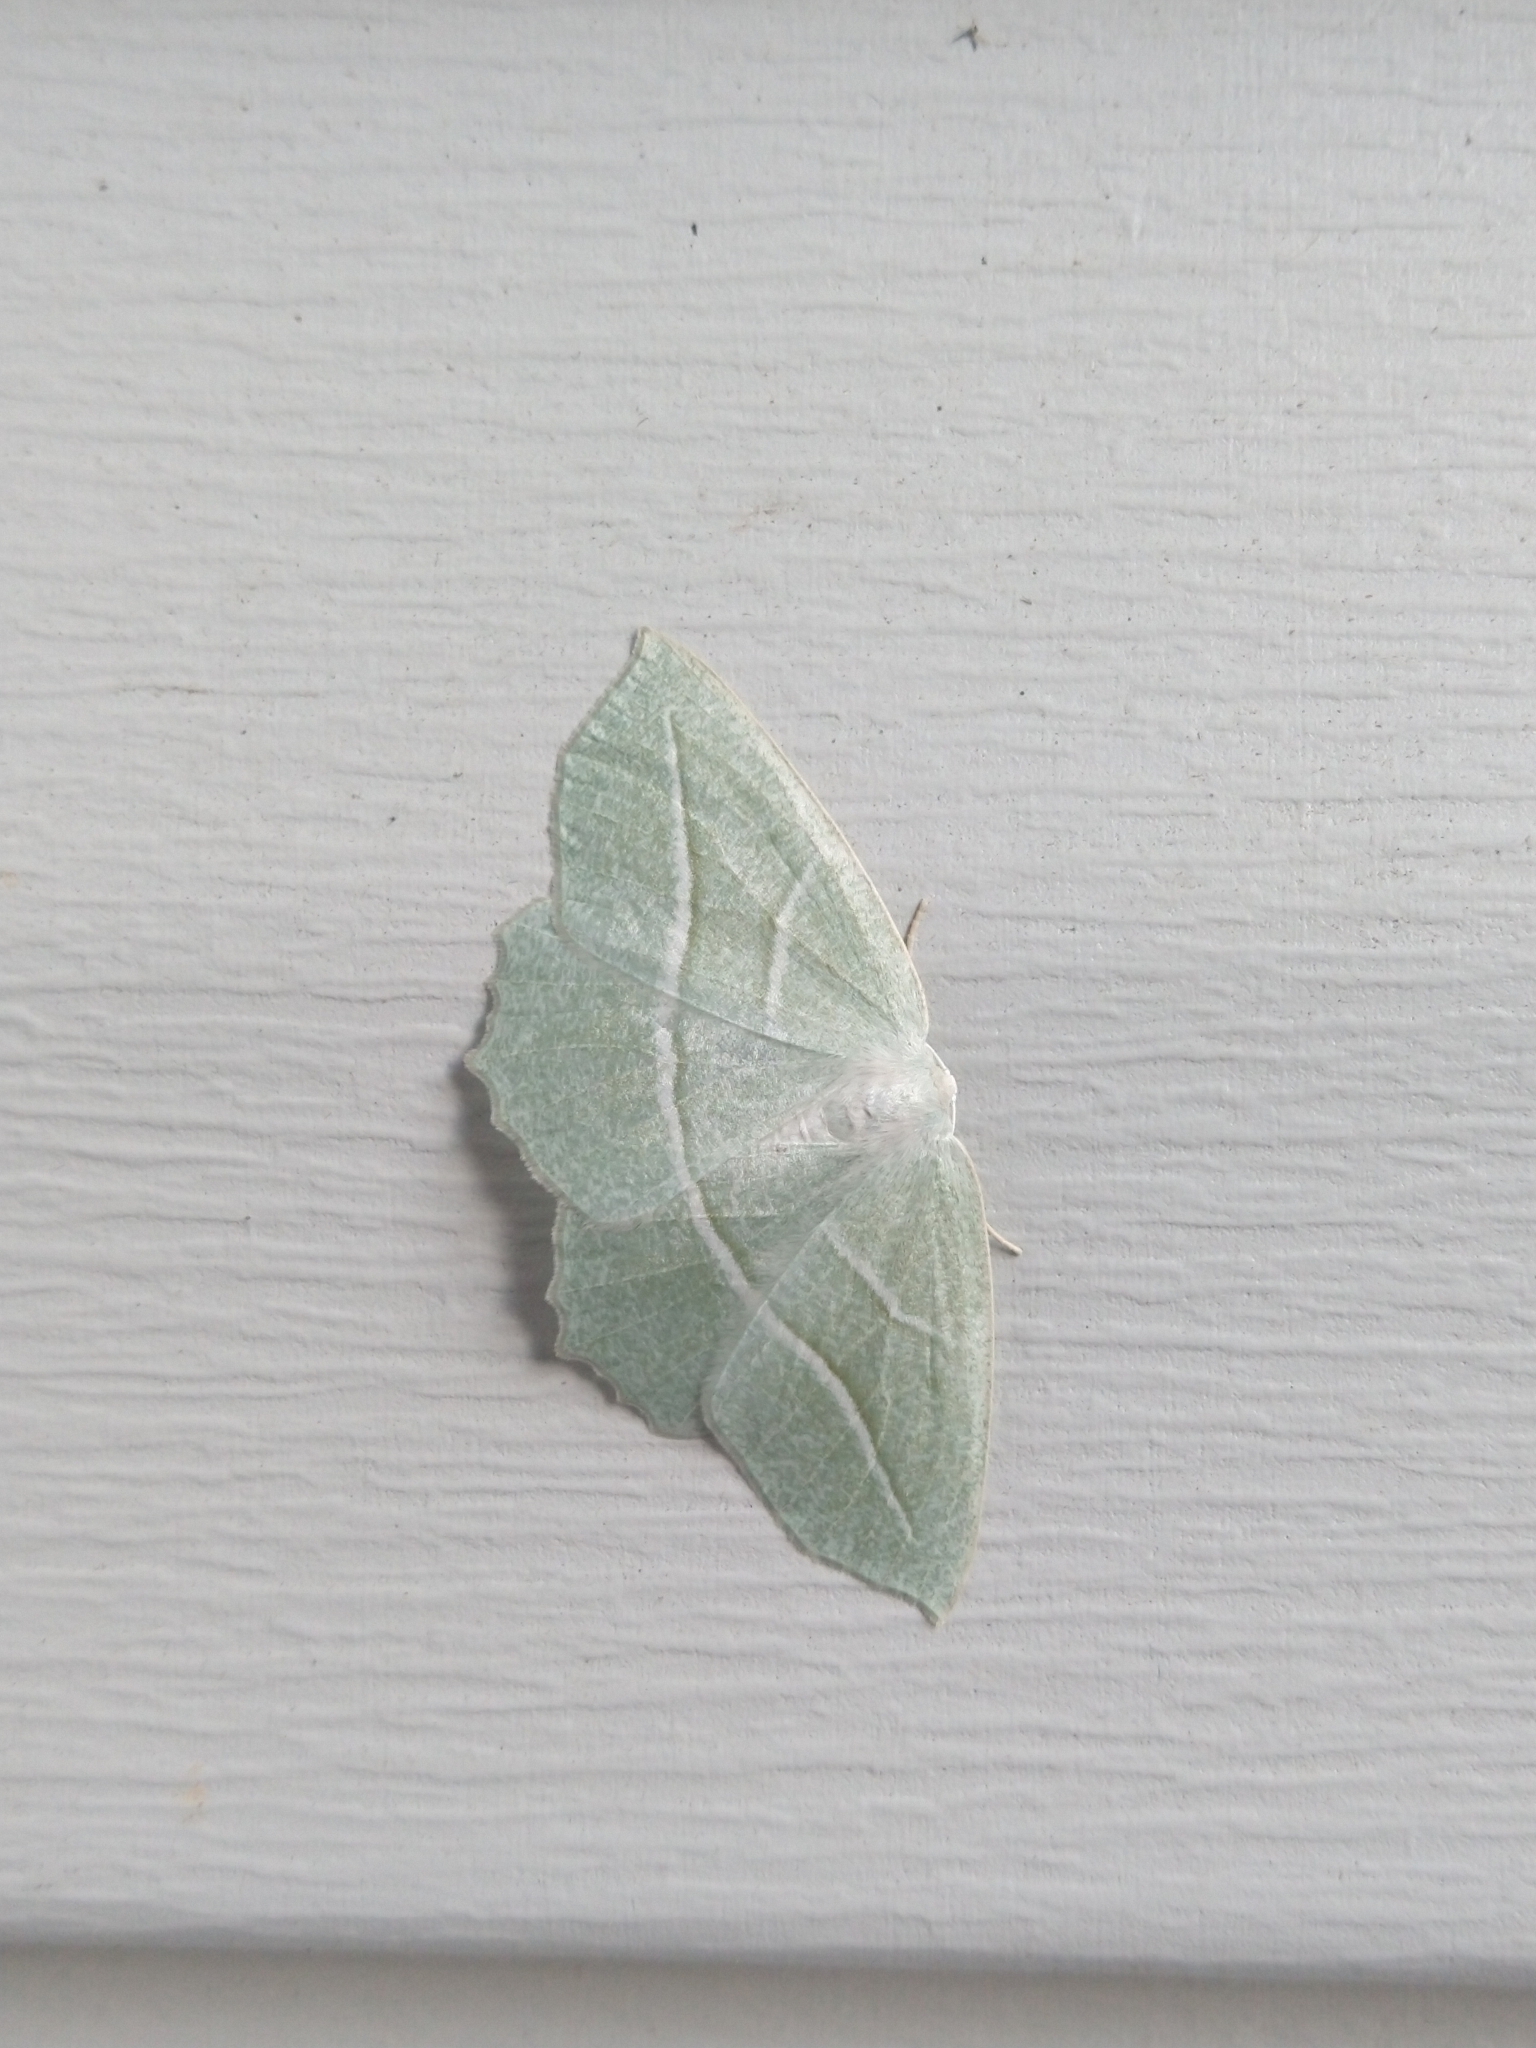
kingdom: Animalia
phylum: Arthropoda
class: Insecta
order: Lepidoptera
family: Geometridae
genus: Campaea
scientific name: Campaea perlata
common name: Fringed looper
